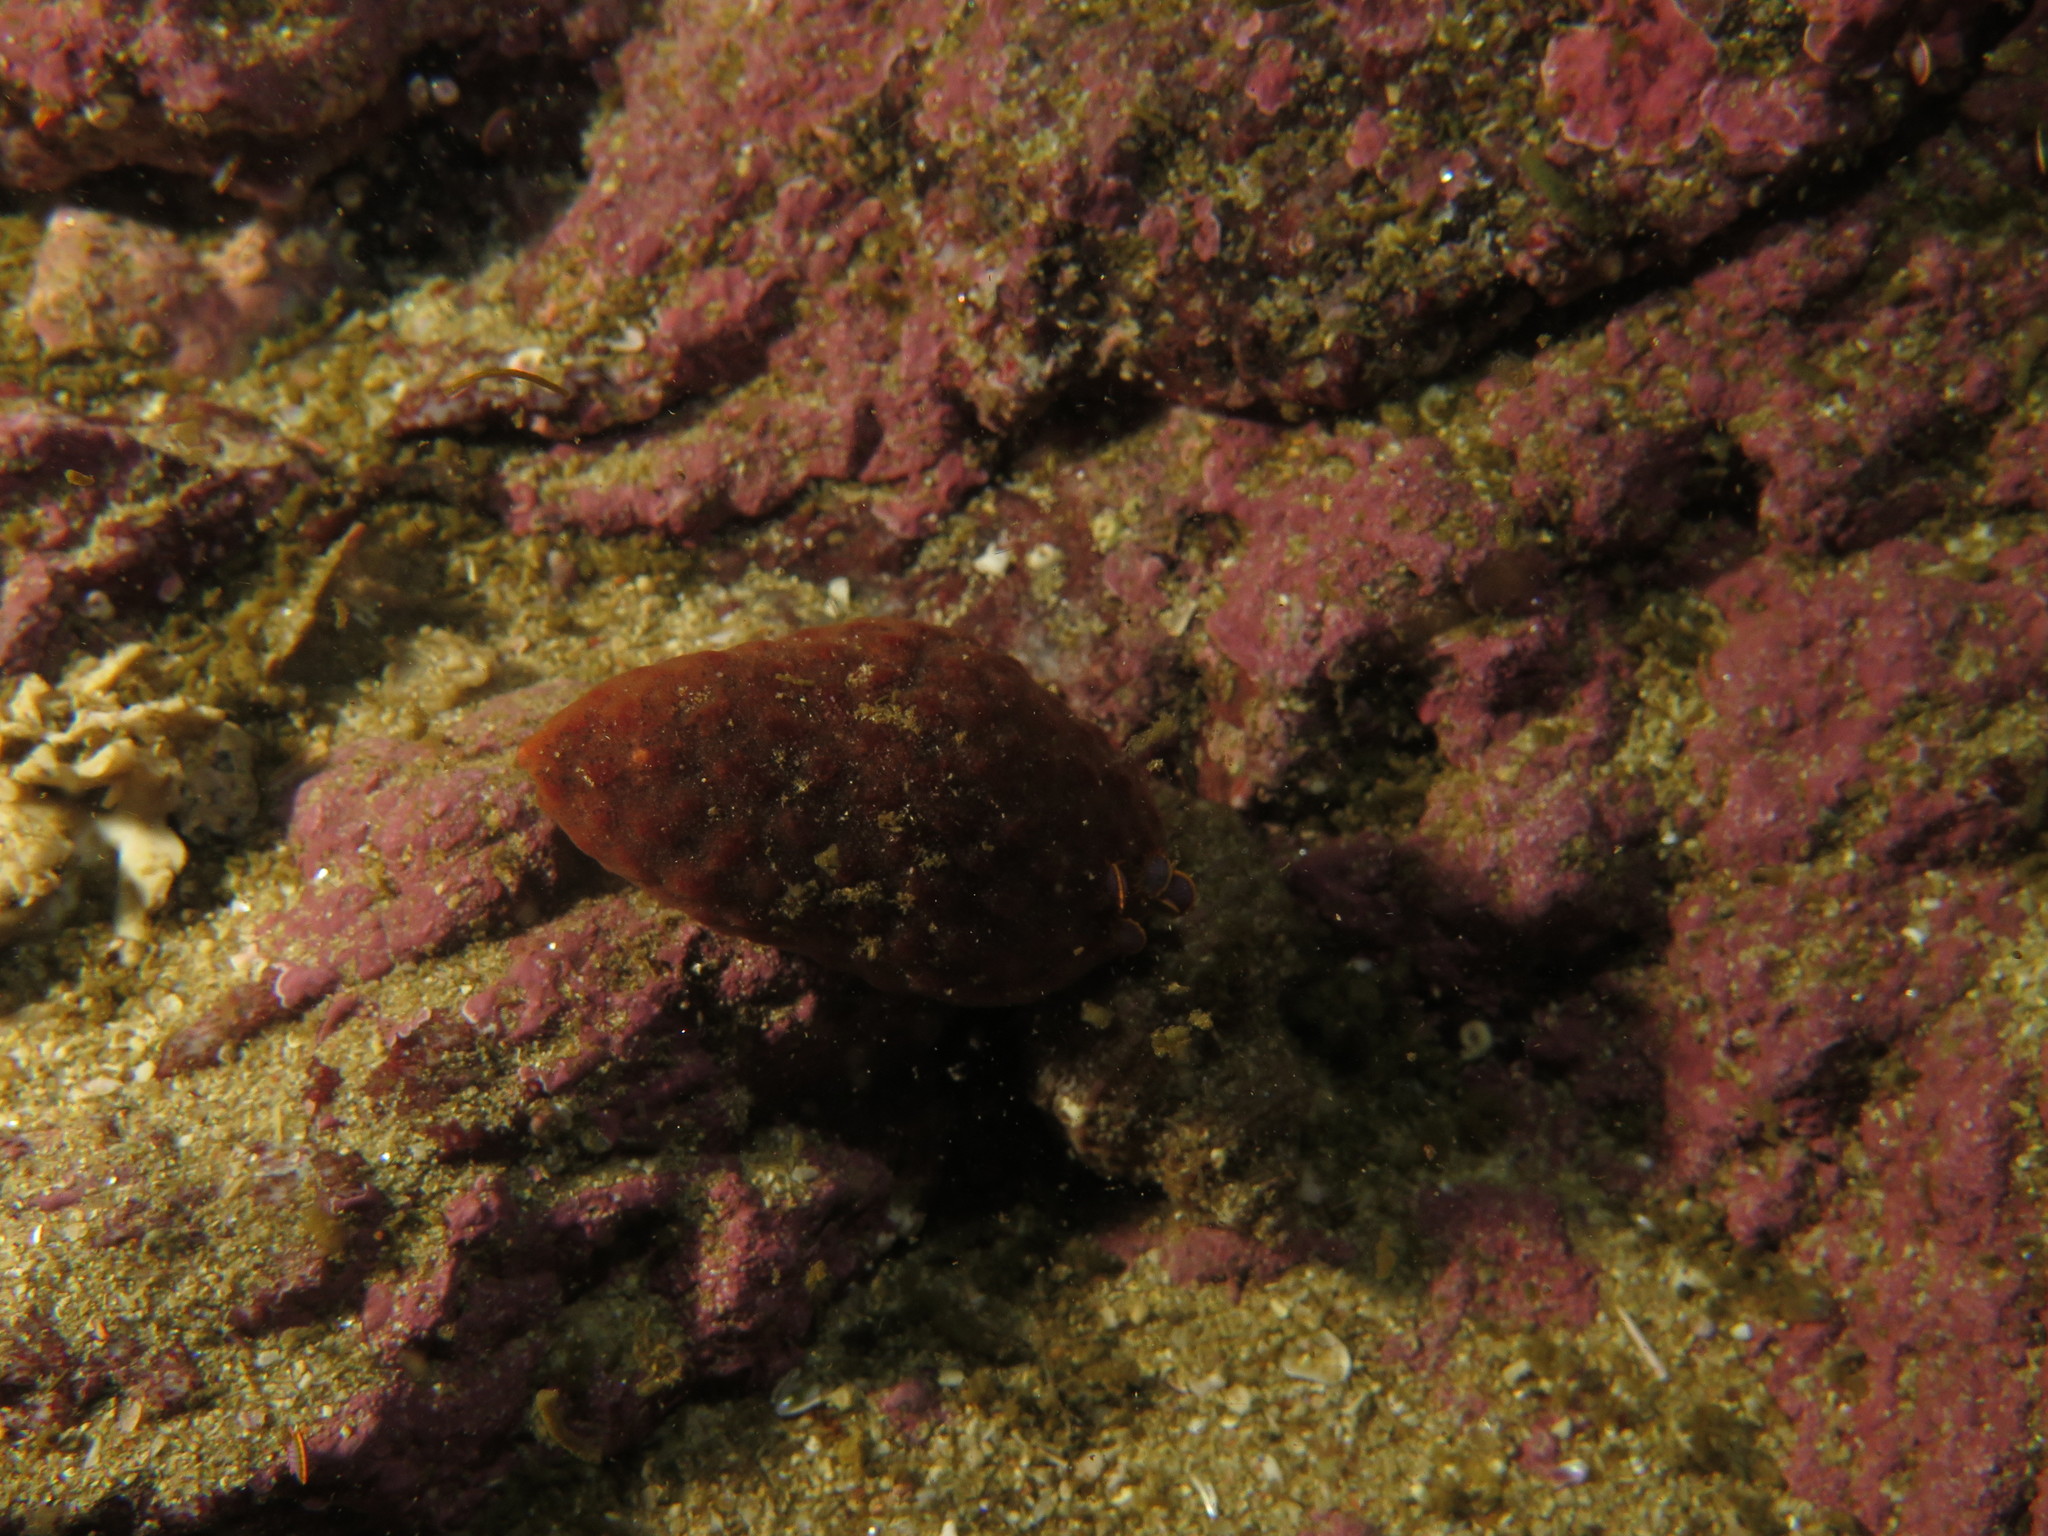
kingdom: Animalia
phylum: Mollusca
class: Gastropoda
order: Neogastropoda
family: Buccinidae
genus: Burnupena
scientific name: Burnupena papyracea
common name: Papery burnupena
